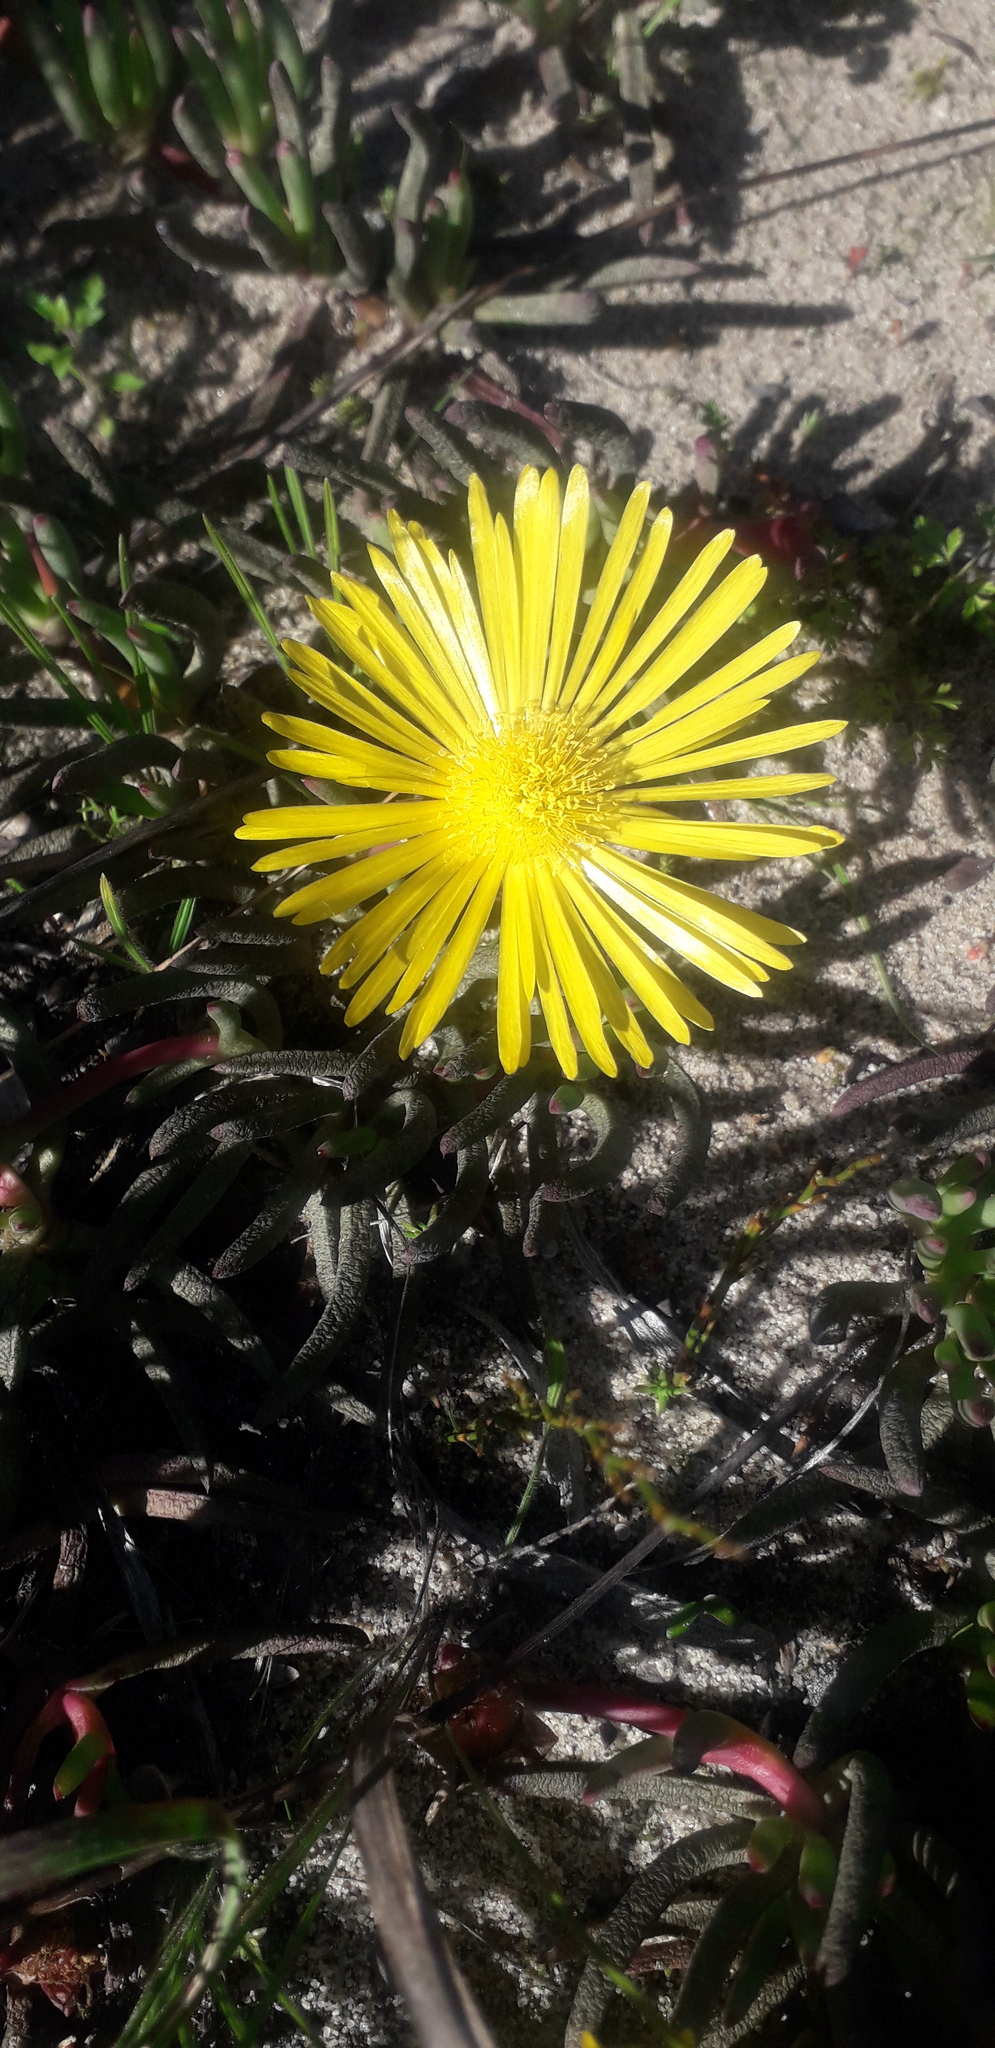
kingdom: Plantae
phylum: Tracheophyta
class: Magnoliopsida
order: Caryophyllales
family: Aizoaceae
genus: Jordaaniella
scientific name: Jordaaniella dubia
